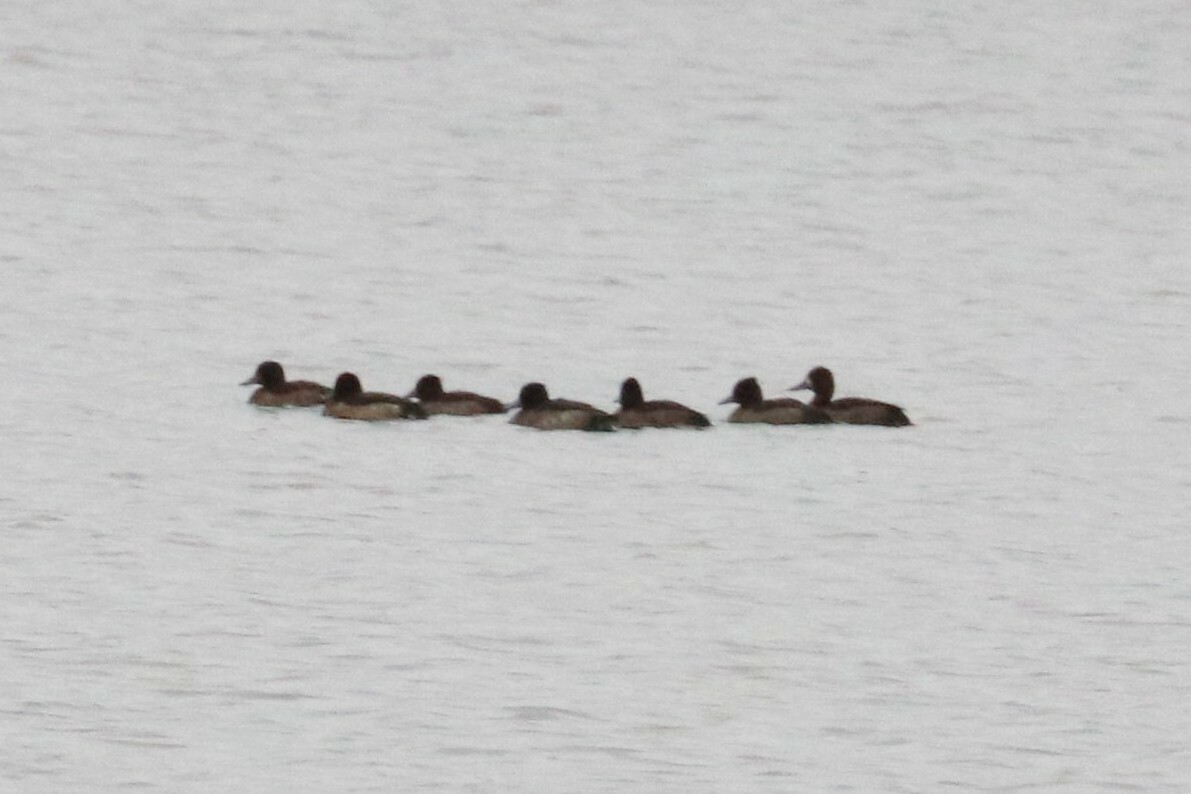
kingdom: Animalia
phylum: Chordata
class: Aves
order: Anseriformes
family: Anatidae
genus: Aythya
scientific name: Aythya fuligula
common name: Tufted duck
